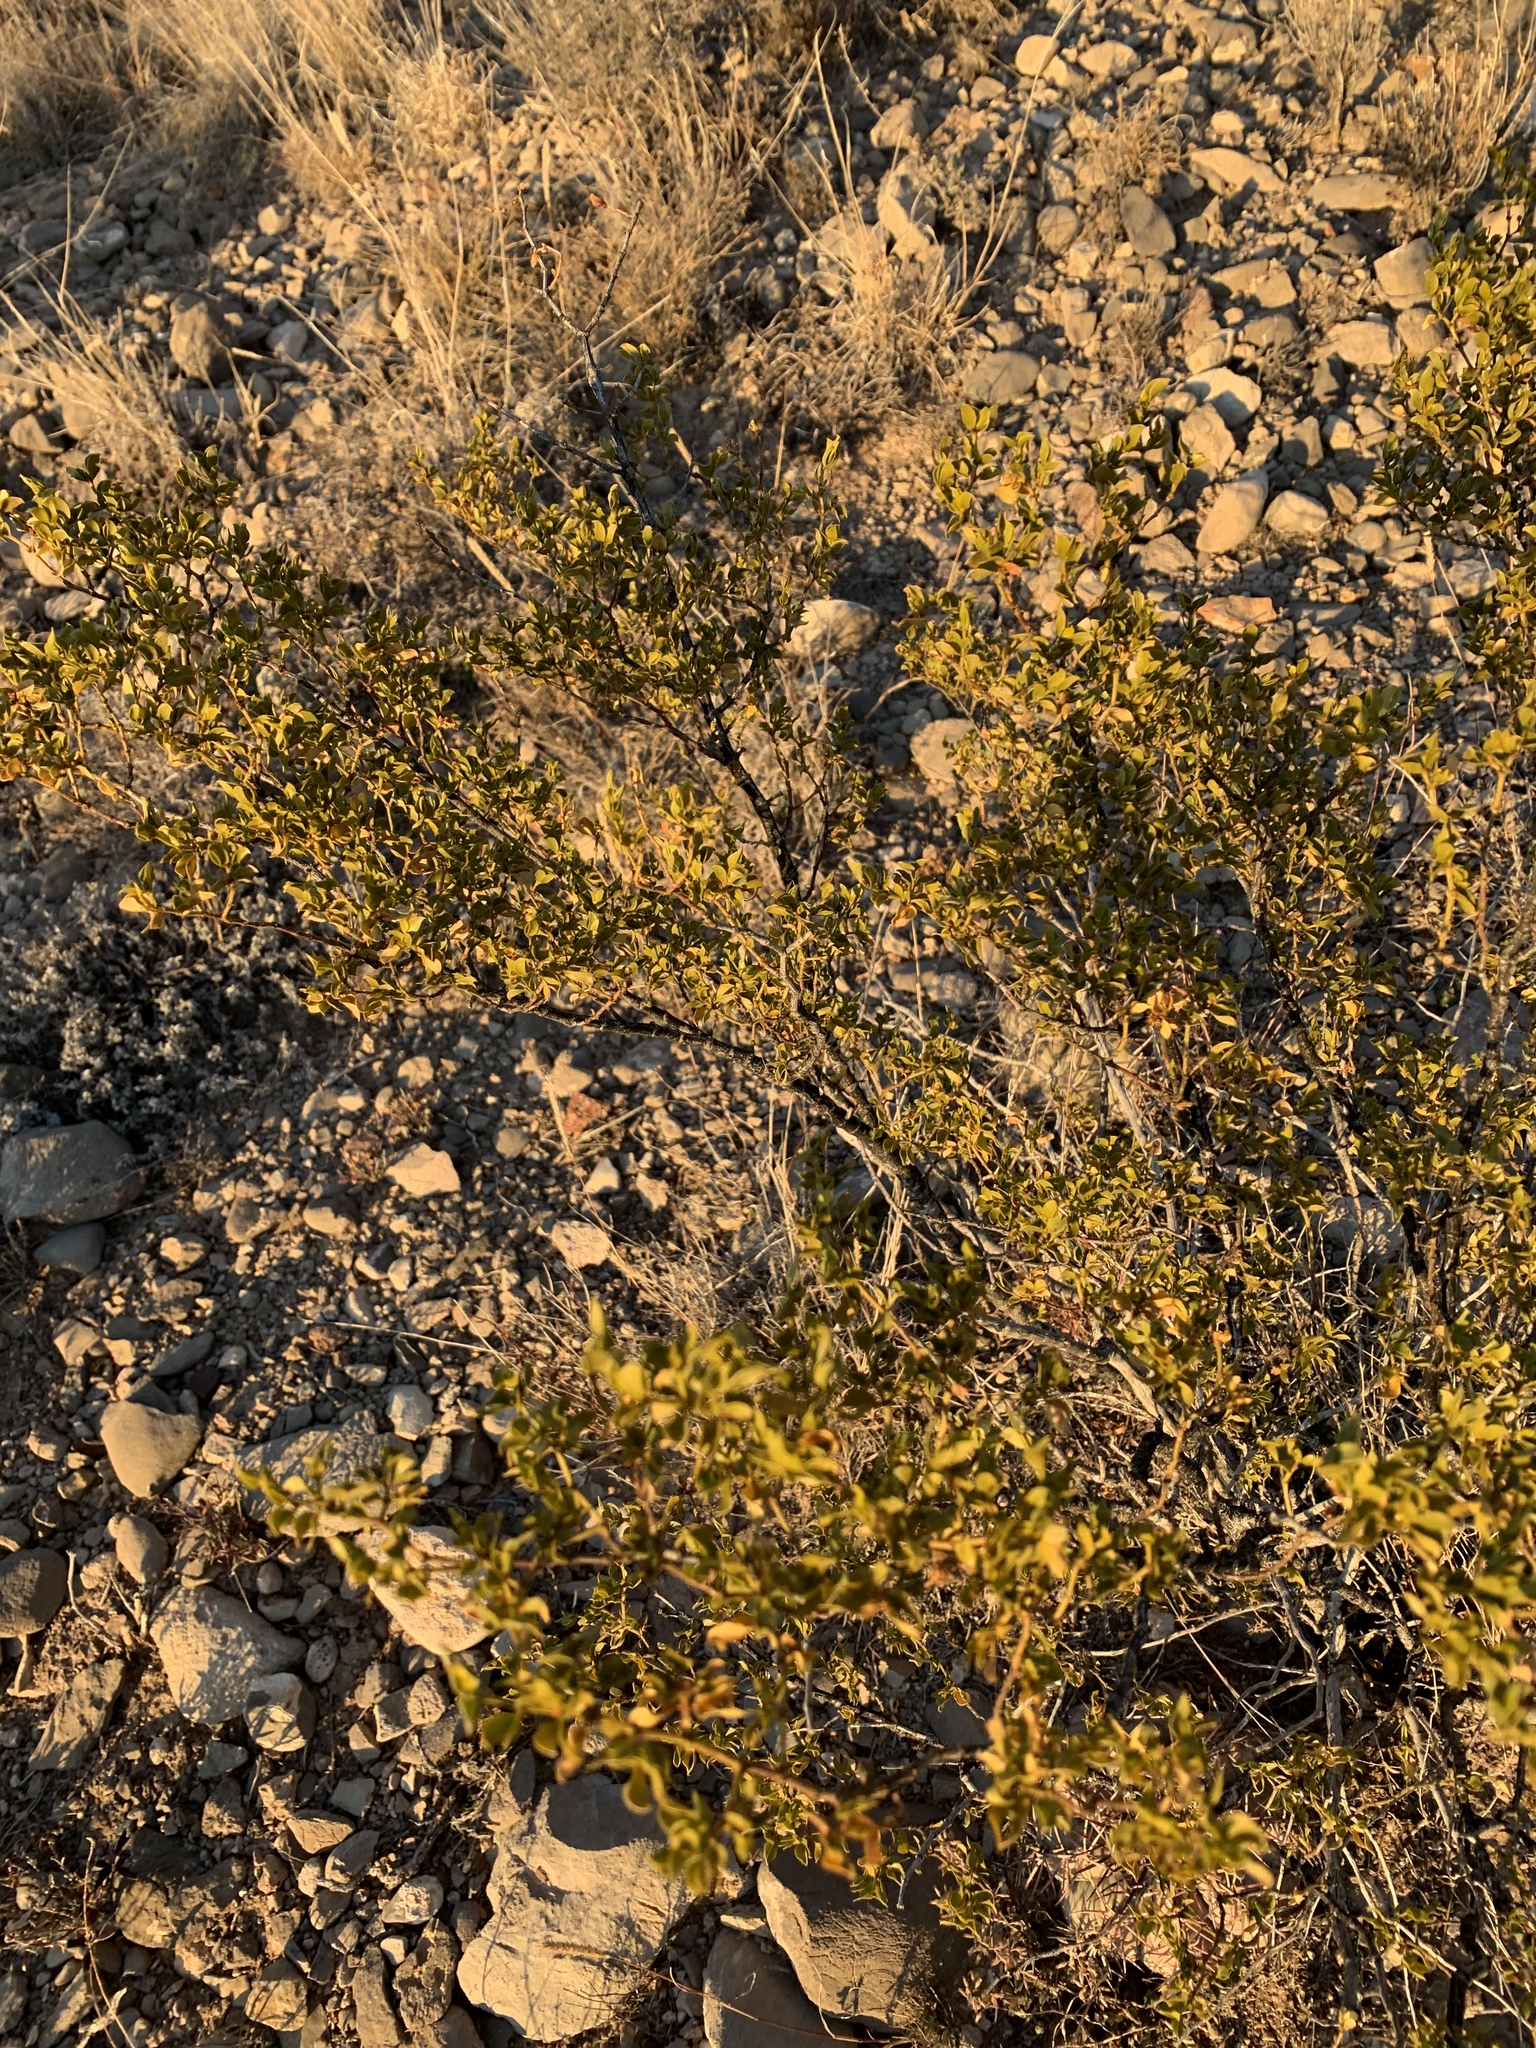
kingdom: Plantae
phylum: Tracheophyta
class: Magnoliopsida
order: Zygophyllales
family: Zygophyllaceae
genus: Larrea
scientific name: Larrea tridentata
